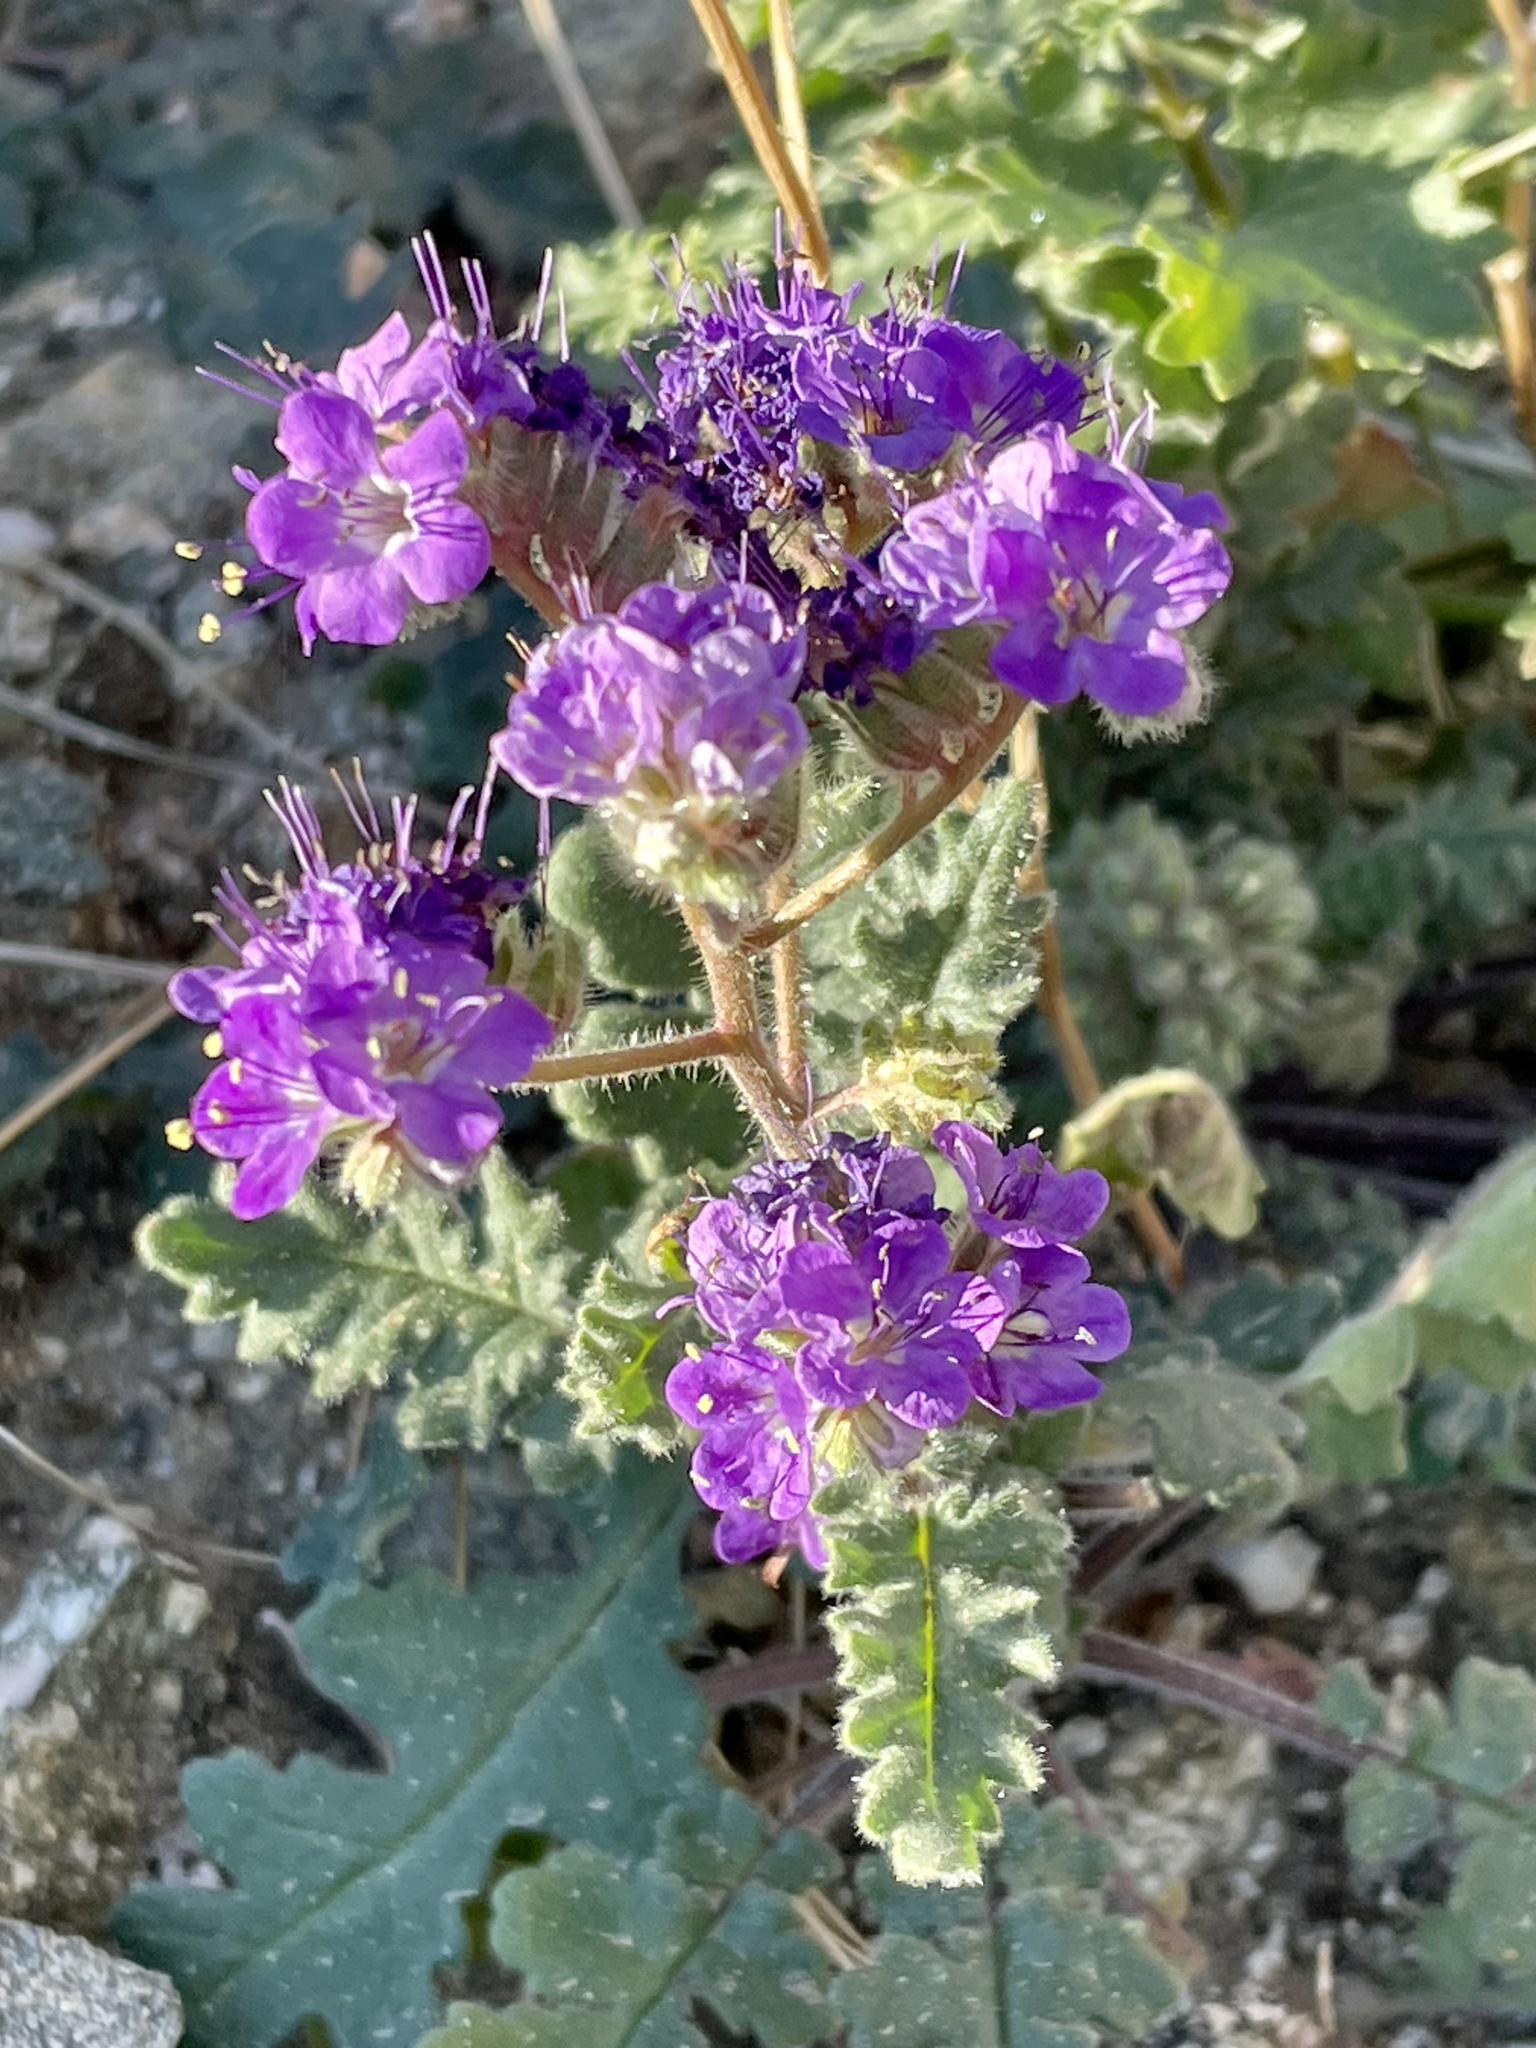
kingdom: Plantae
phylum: Tracheophyta
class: Magnoliopsida
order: Boraginales
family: Hydrophyllaceae
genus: Phacelia
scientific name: Phacelia crenulata
